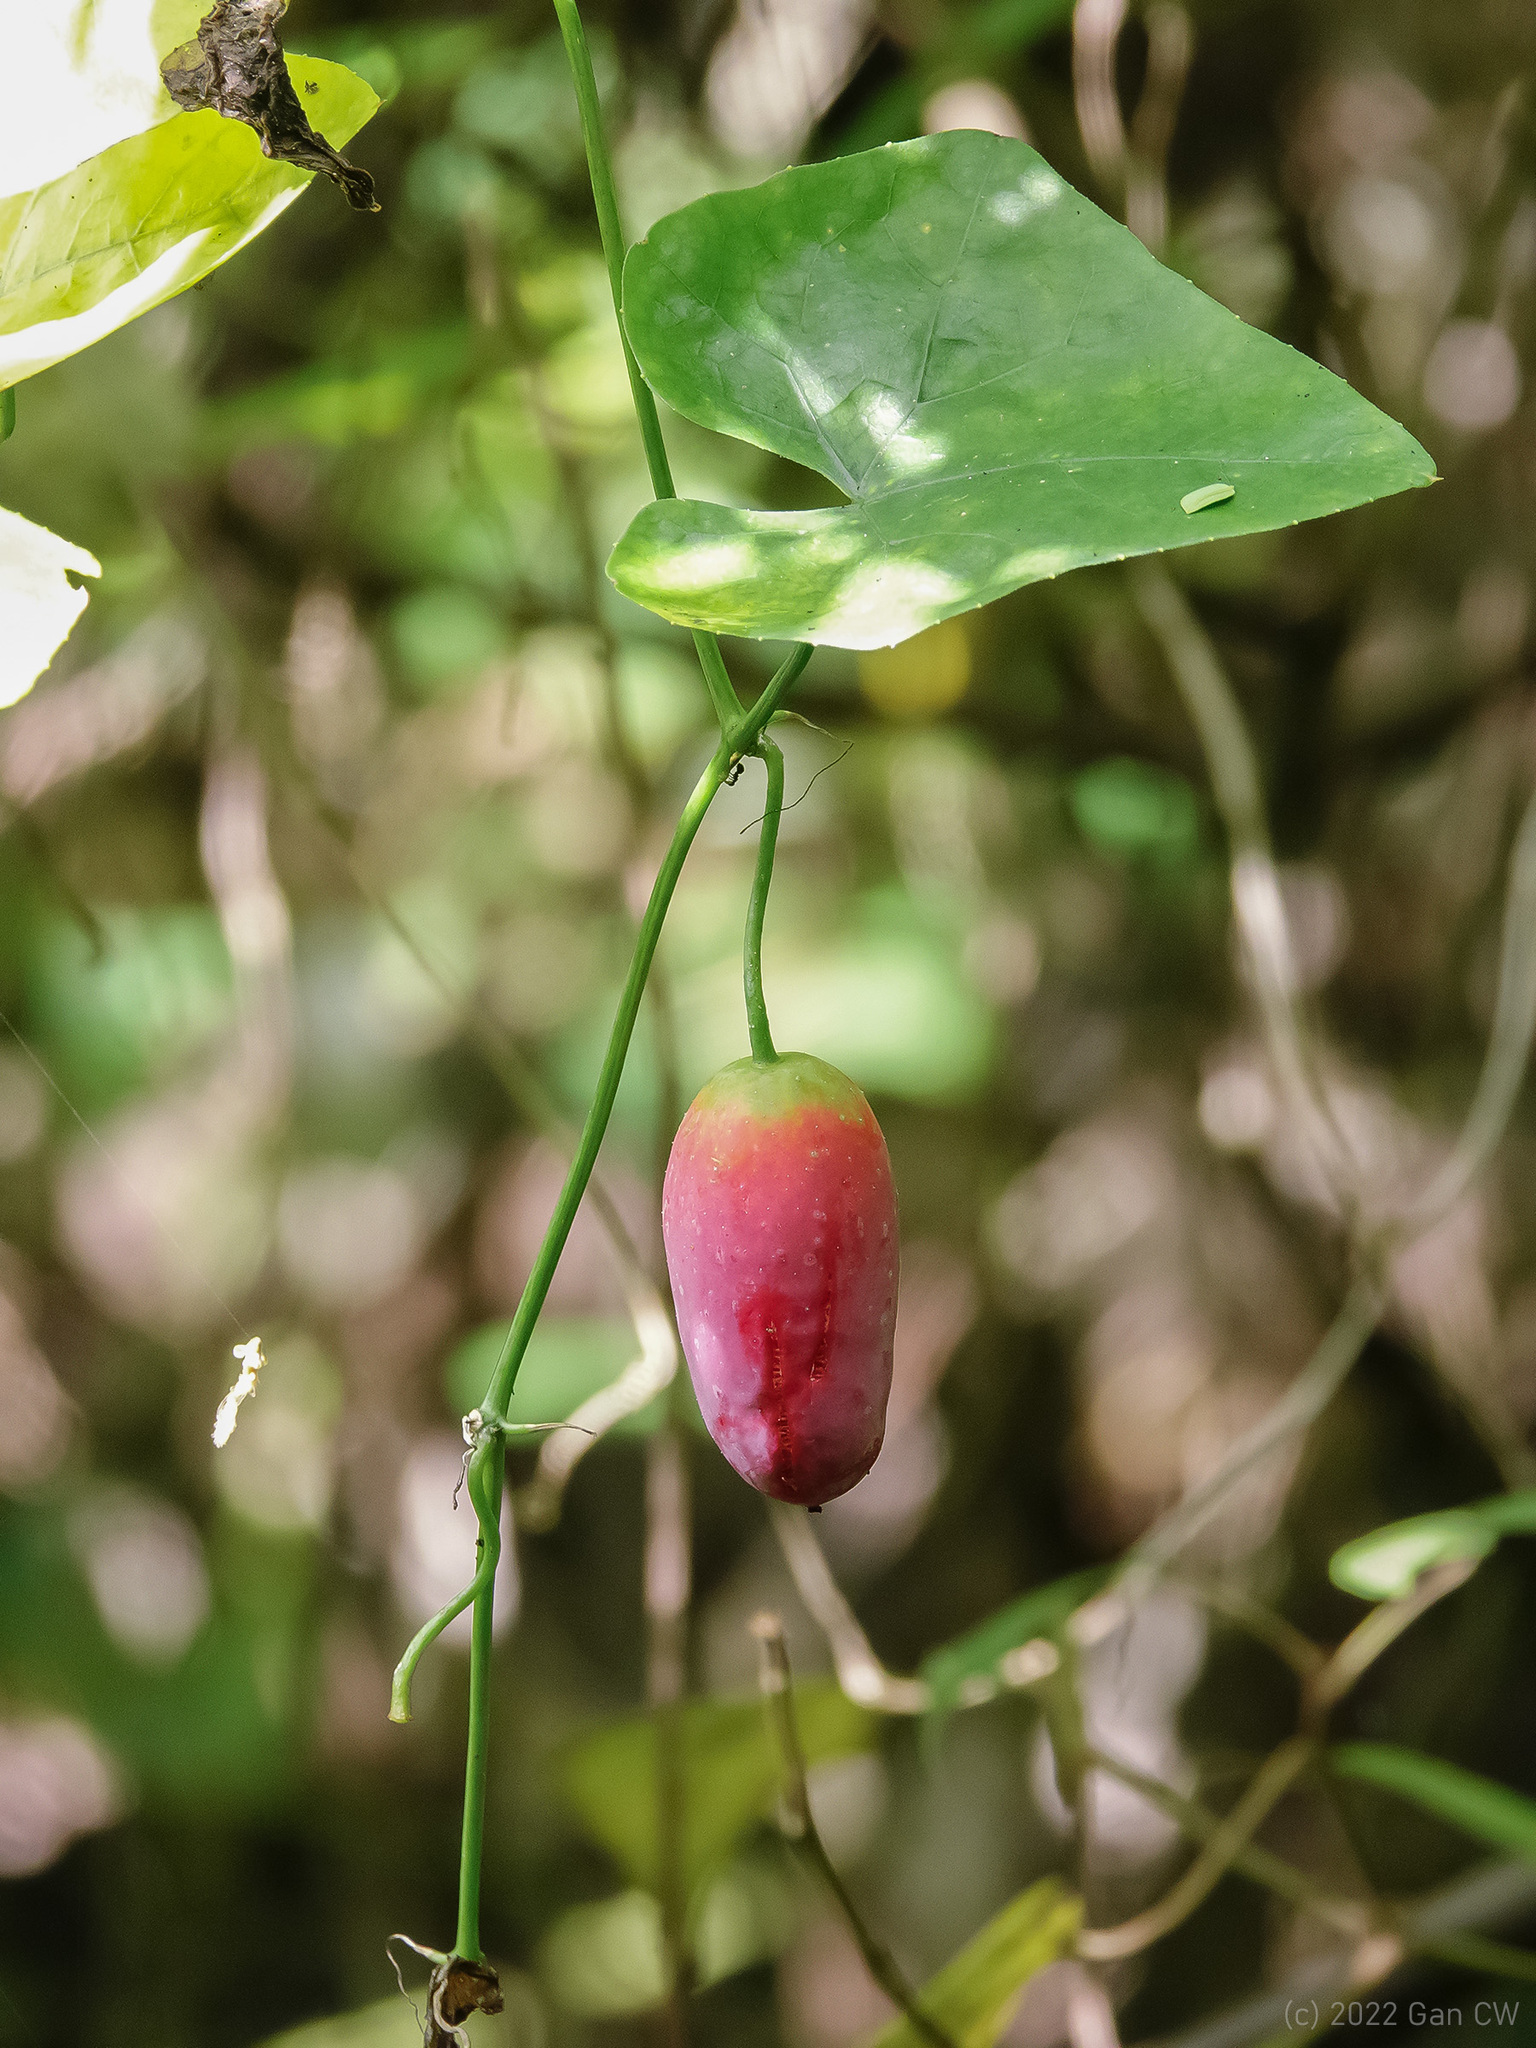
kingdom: Plantae
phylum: Tracheophyta
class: Magnoliopsida
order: Cucurbitales
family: Cucurbitaceae
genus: Coccinia
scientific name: Coccinia grandis
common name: Ivy gourd
